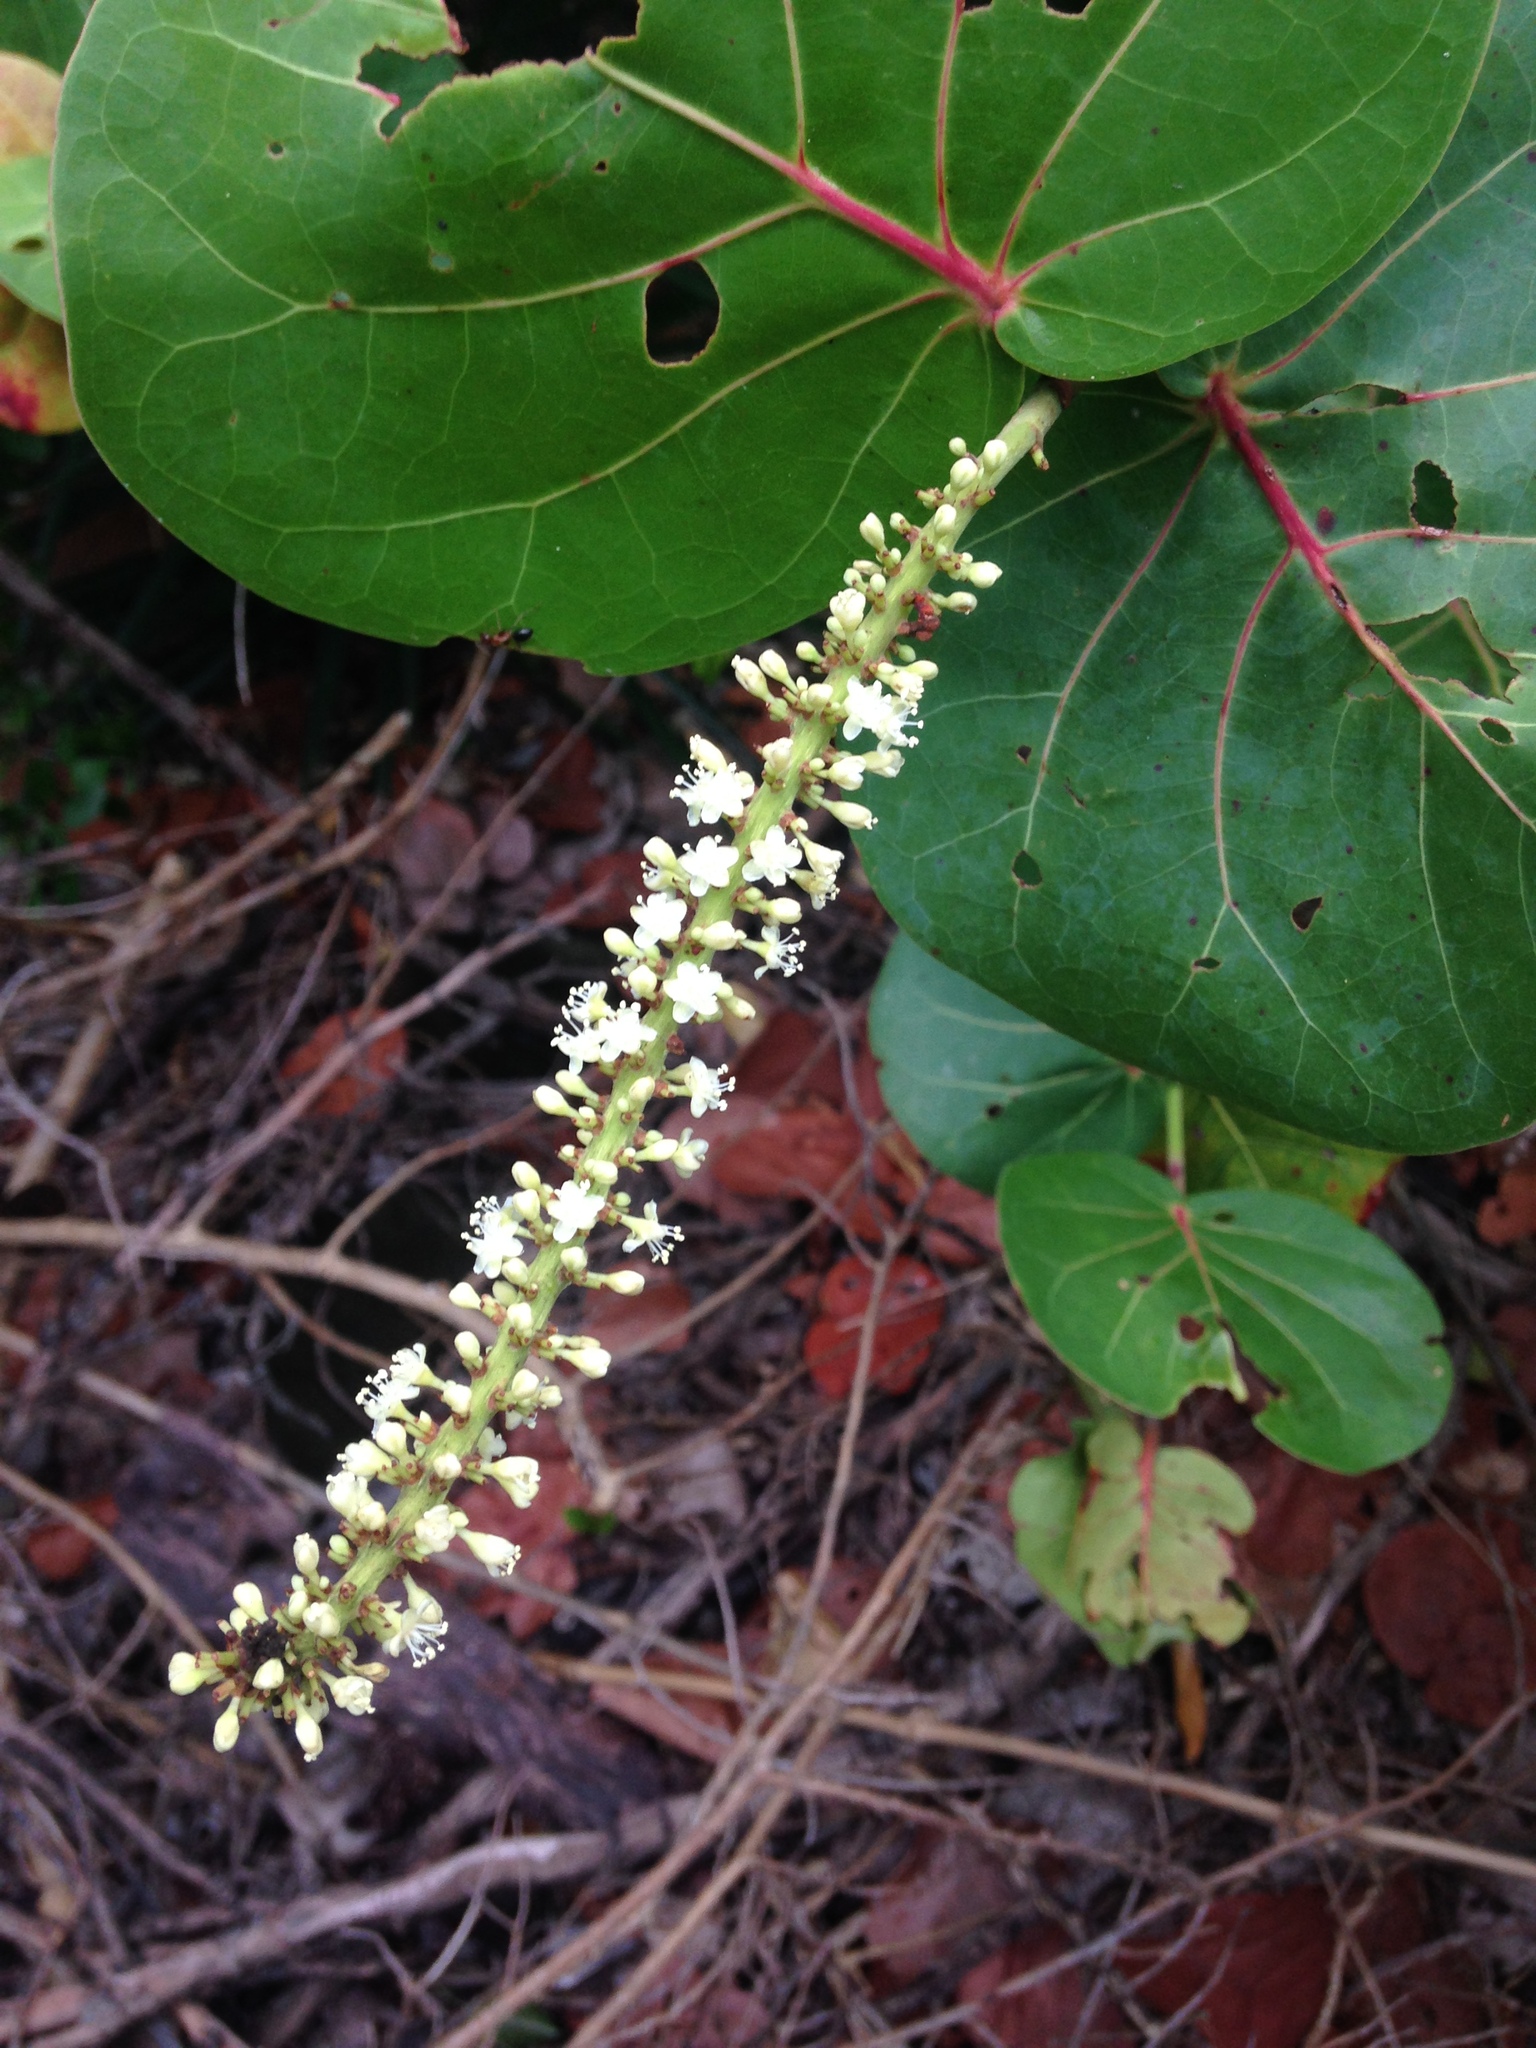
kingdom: Plantae
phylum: Tracheophyta
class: Magnoliopsida
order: Caryophyllales
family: Polygonaceae
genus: Coccoloba
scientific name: Coccoloba uvifera
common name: Seagrape
